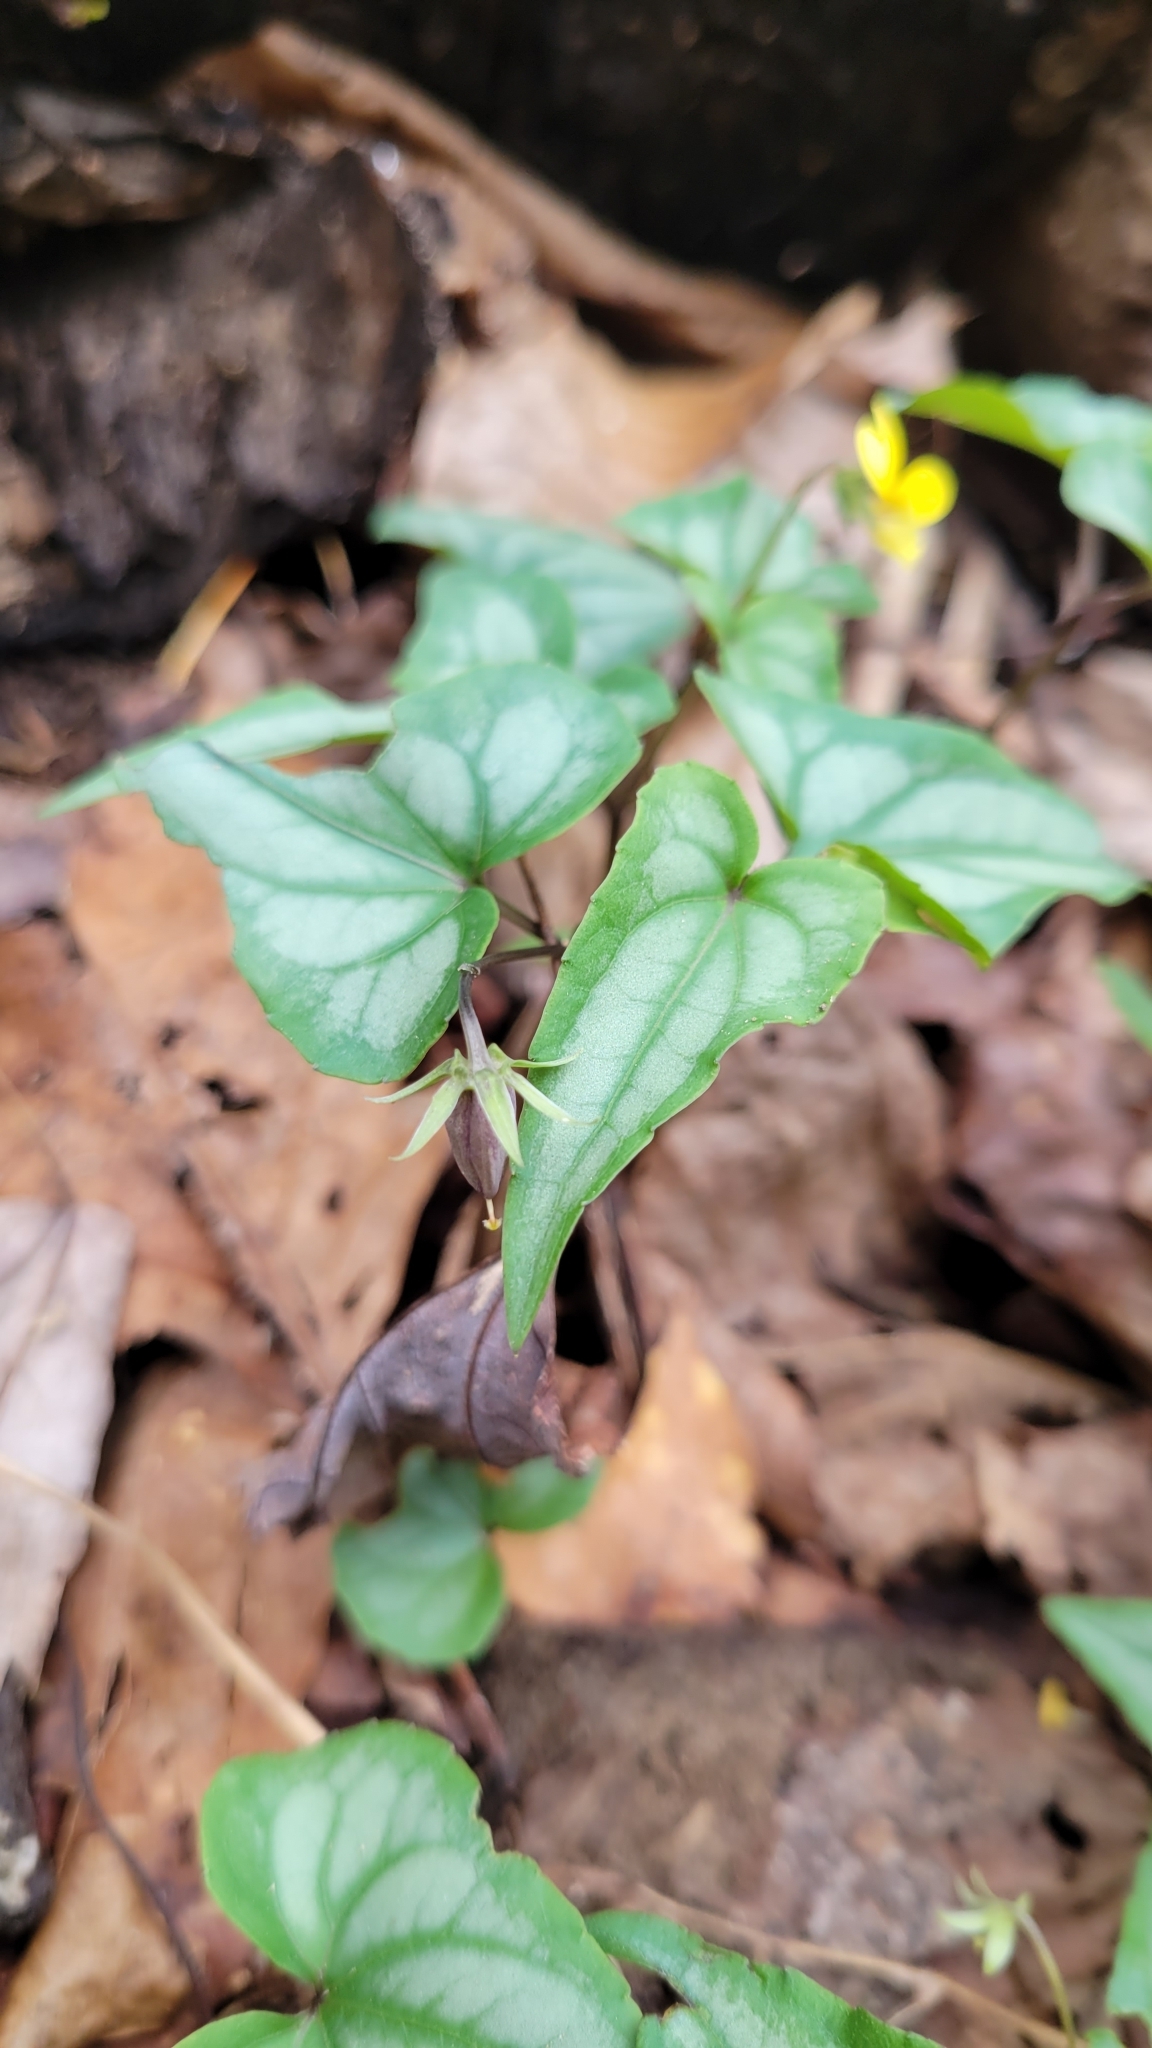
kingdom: Plantae
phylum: Tracheophyta
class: Magnoliopsida
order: Malpighiales
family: Violaceae
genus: Viola
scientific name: Viola hastata
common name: Spear-leaf violet
